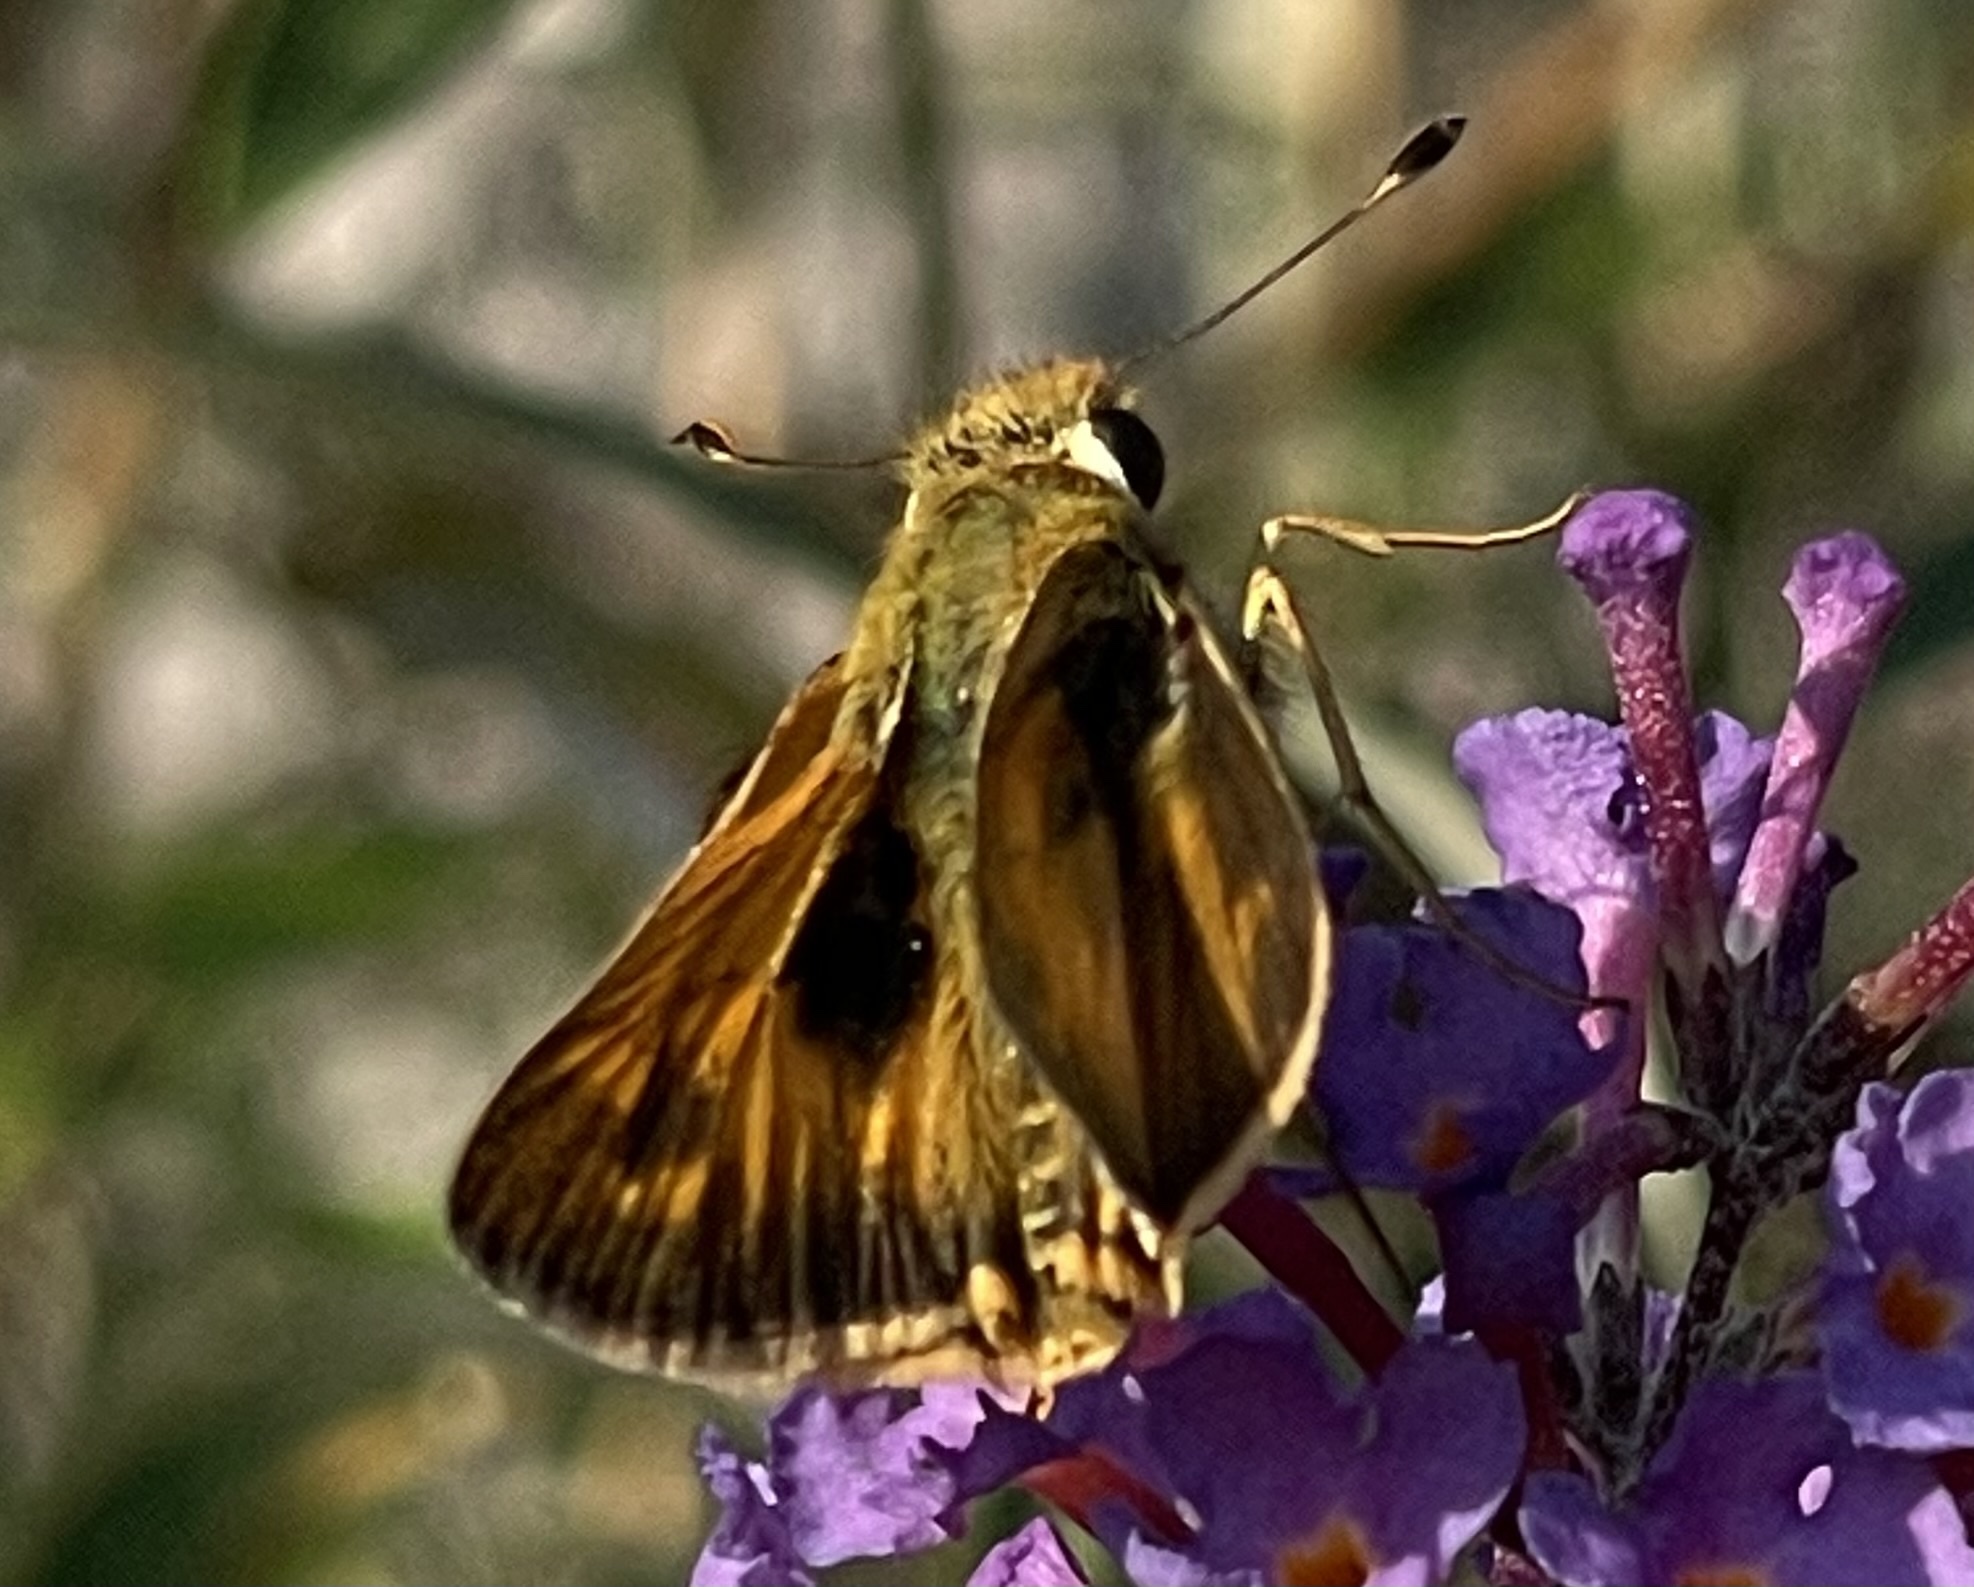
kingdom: Animalia
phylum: Arthropoda
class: Insecta
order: Lepidoptera
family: Hesperiidae
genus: Atalopedes
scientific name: Atalopedes
